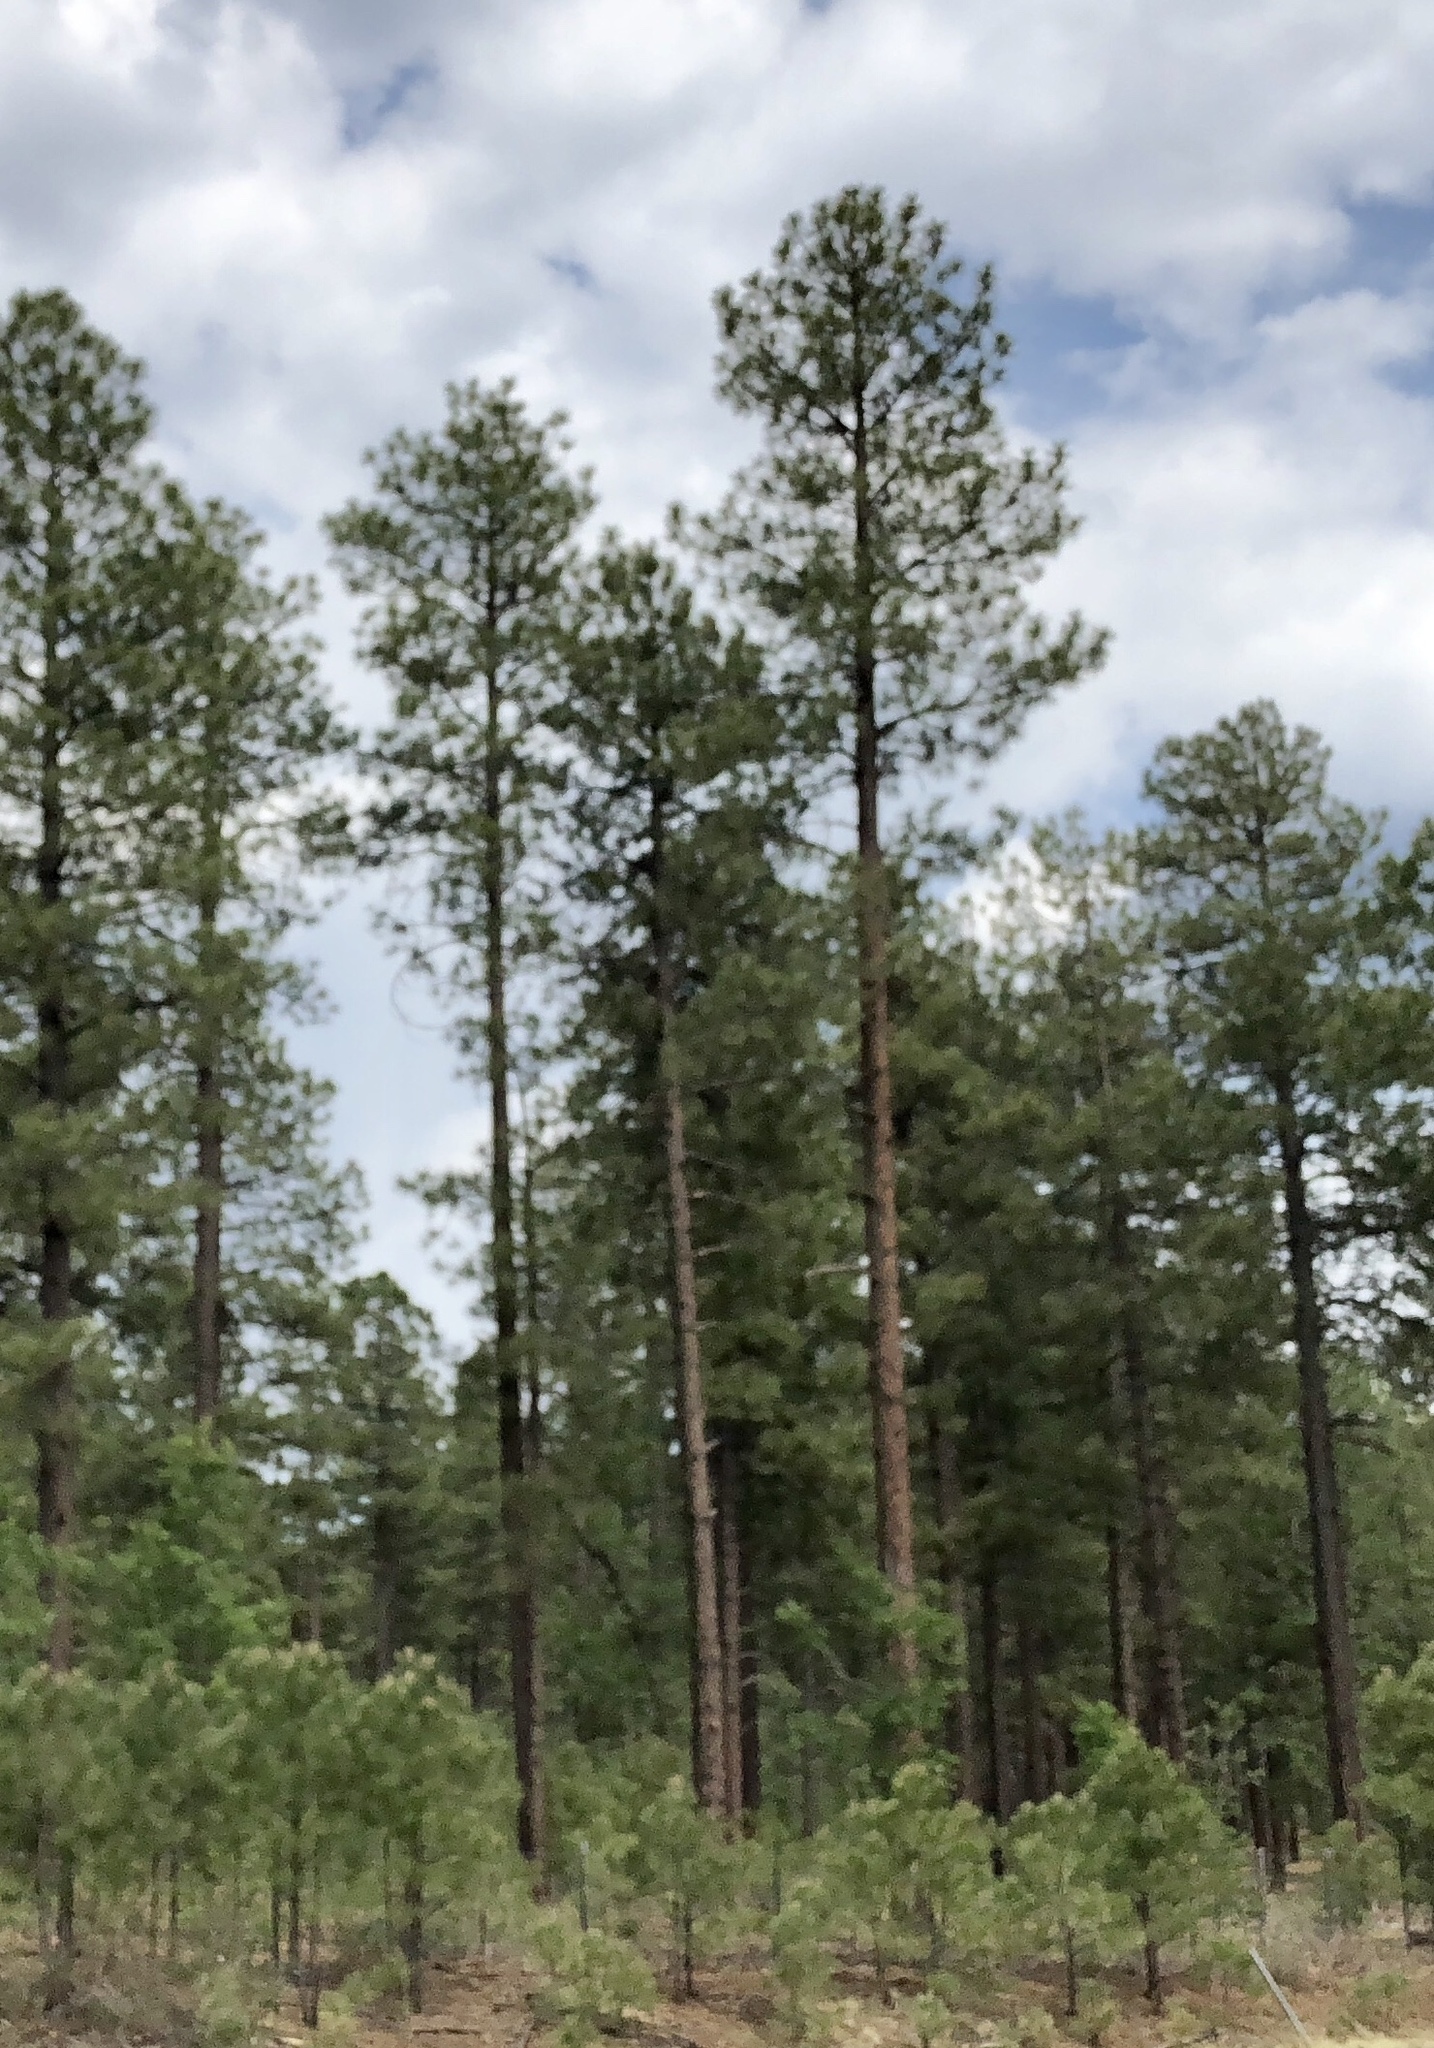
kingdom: Plantae
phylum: Tracheophyta
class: Pinopsida
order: Pinales
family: Pinaceae
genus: Pinus
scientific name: Pinus ponderosa
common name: Western yellow-pine
